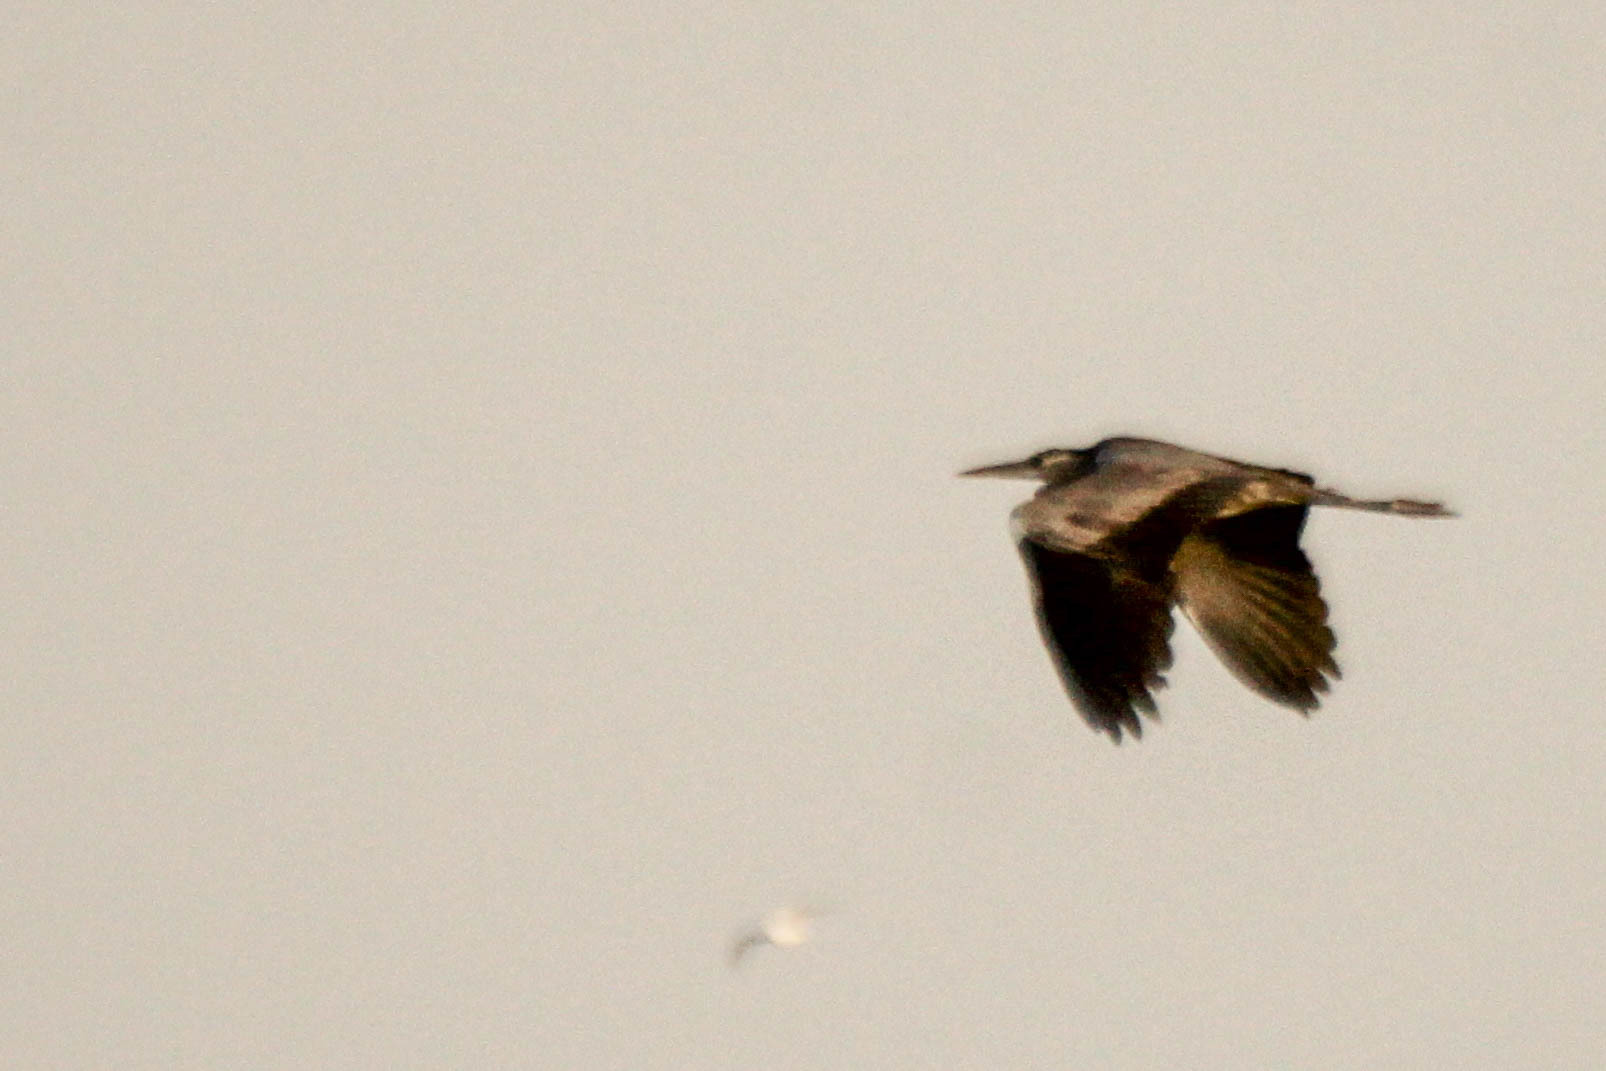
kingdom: Animalia
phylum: Chordata
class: Aves
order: Pelecaniformes
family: Ardeidae
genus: Ardea
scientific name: Ardea cinerea
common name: Grey heron
